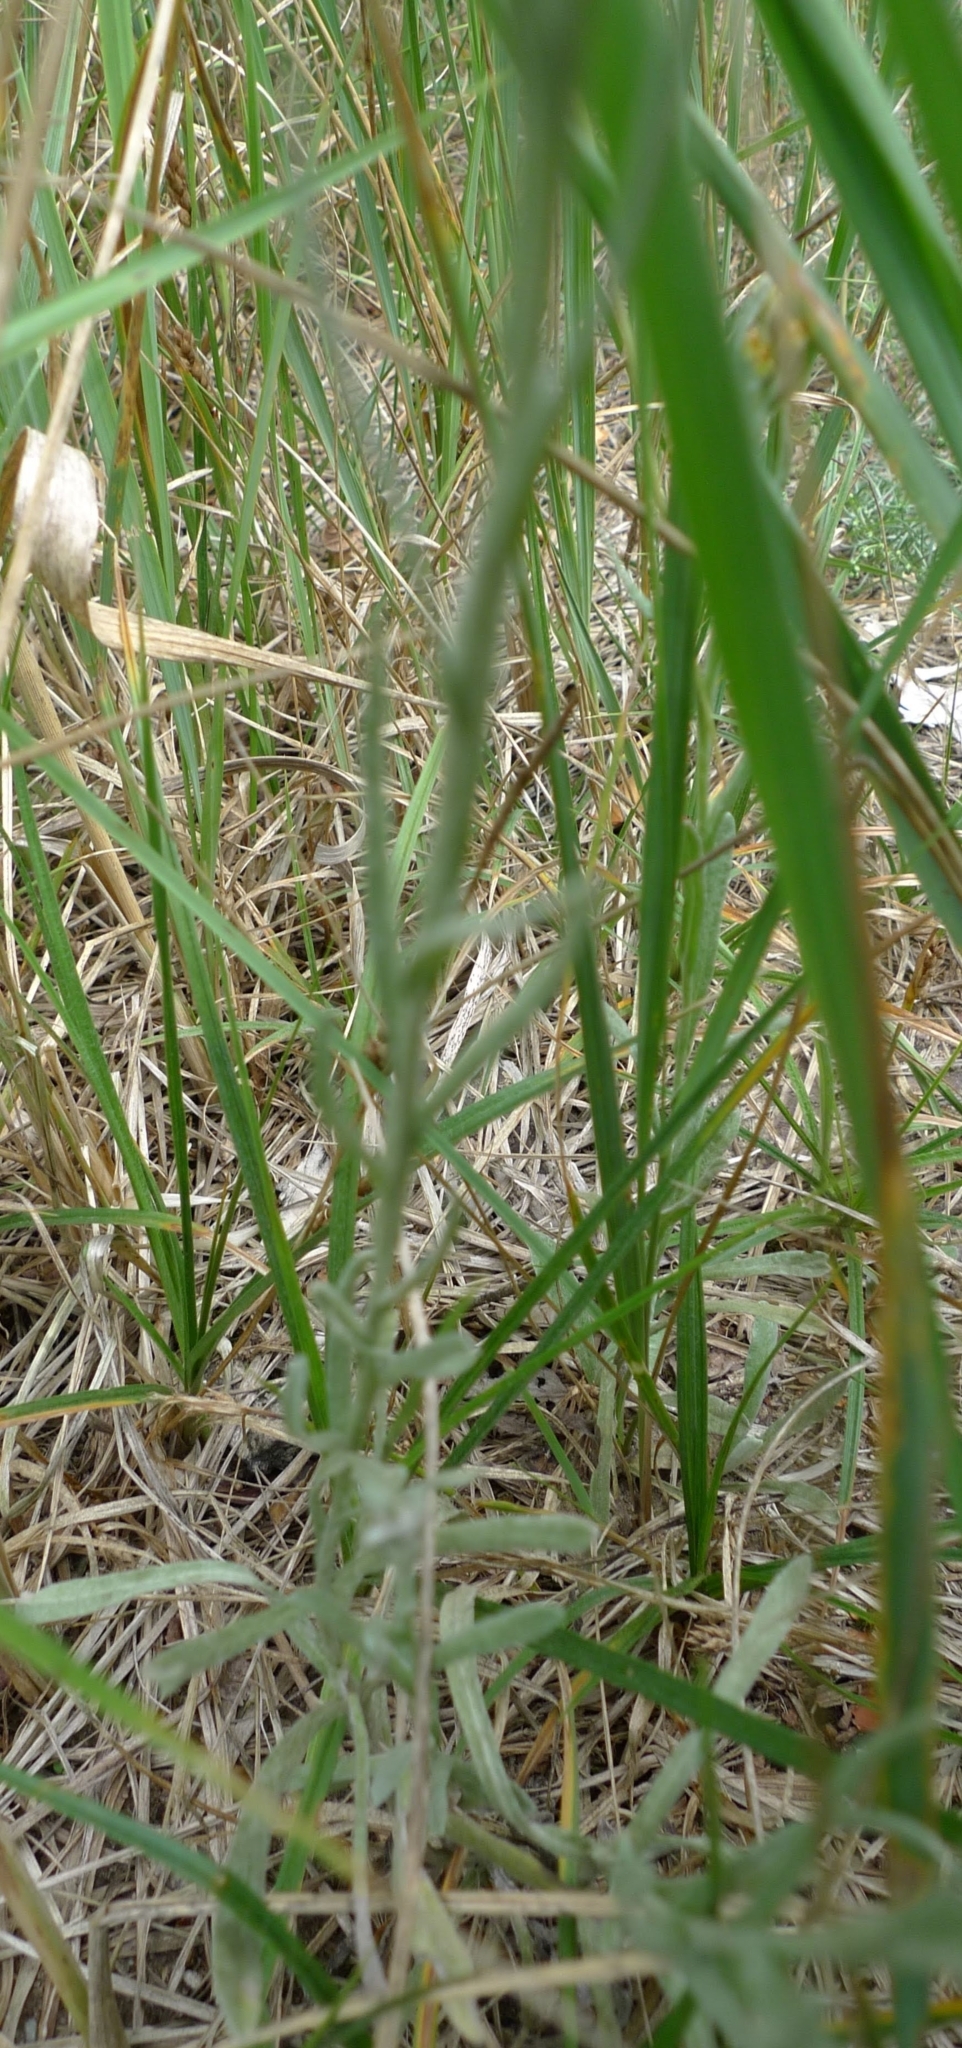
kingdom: Plantae
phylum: Tracheophyta
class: Magnoliopsida
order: Asterales
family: Asteraceae
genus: Helichrysum
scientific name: Helichrysum arenarium
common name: Strawflower
